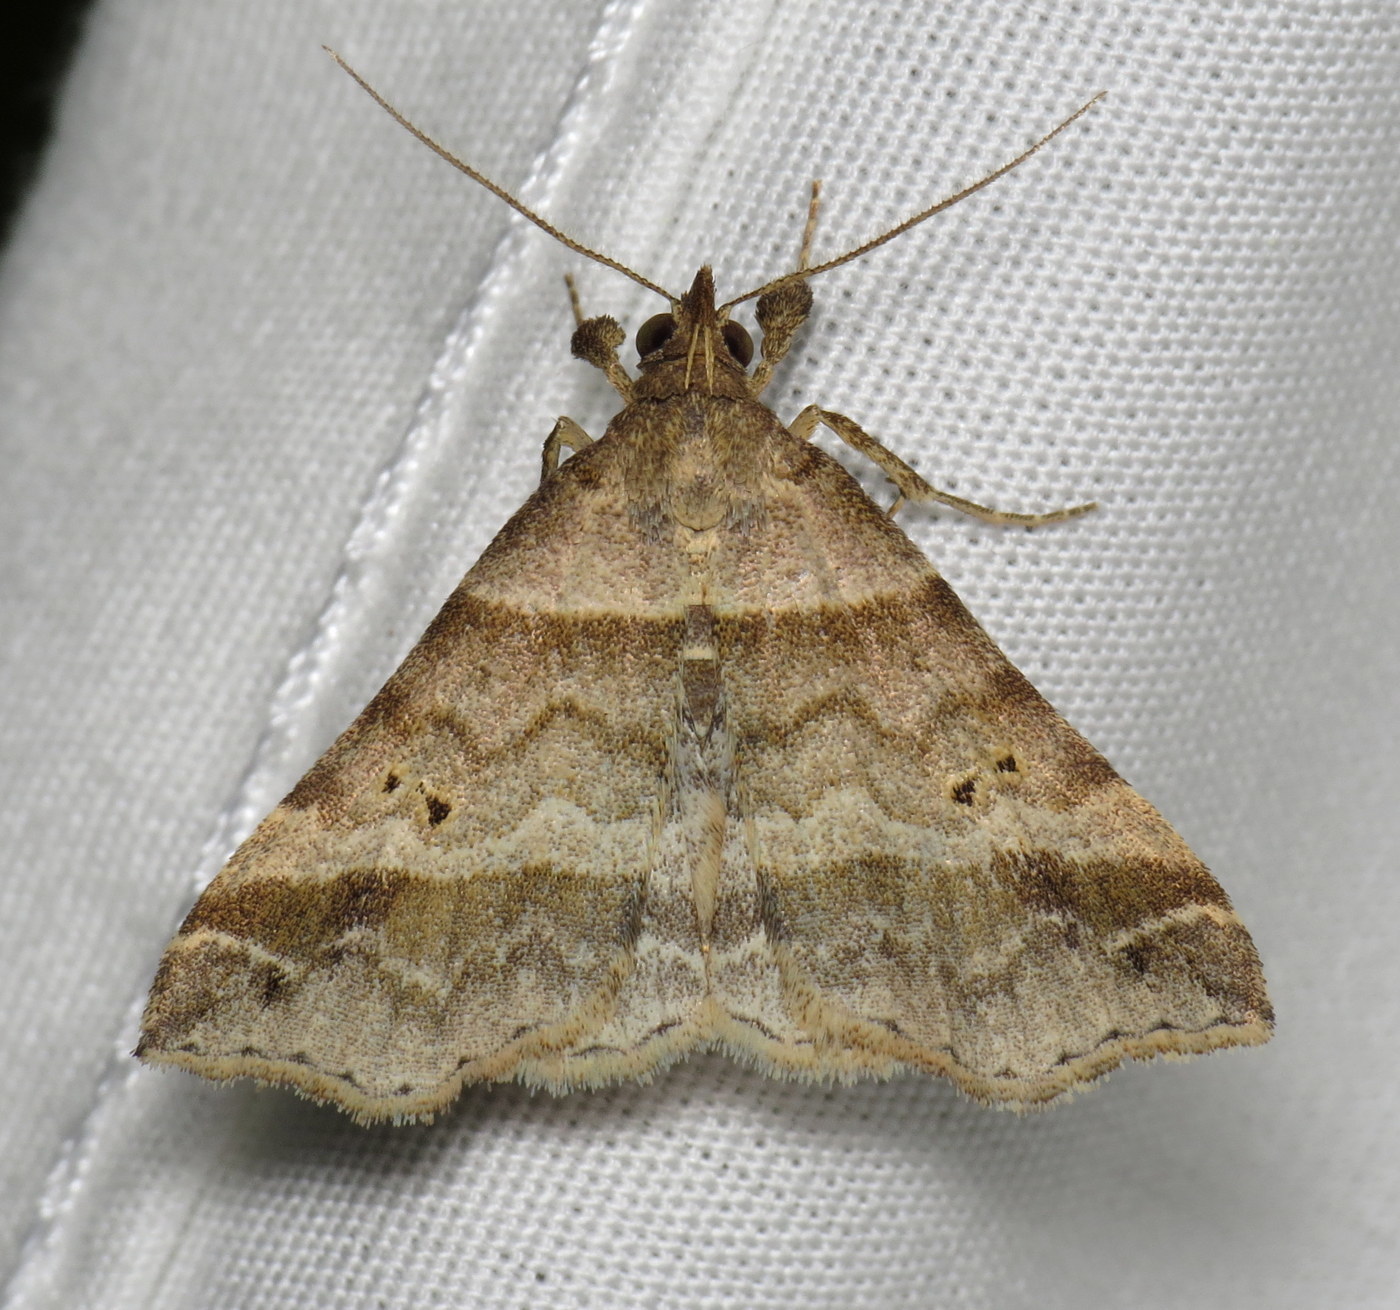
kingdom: Animalia
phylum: Arthropoda
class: Insecta
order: Lepidoptera
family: Erebidae
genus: Phaeolita
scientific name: Phaeolita pyramusalis
